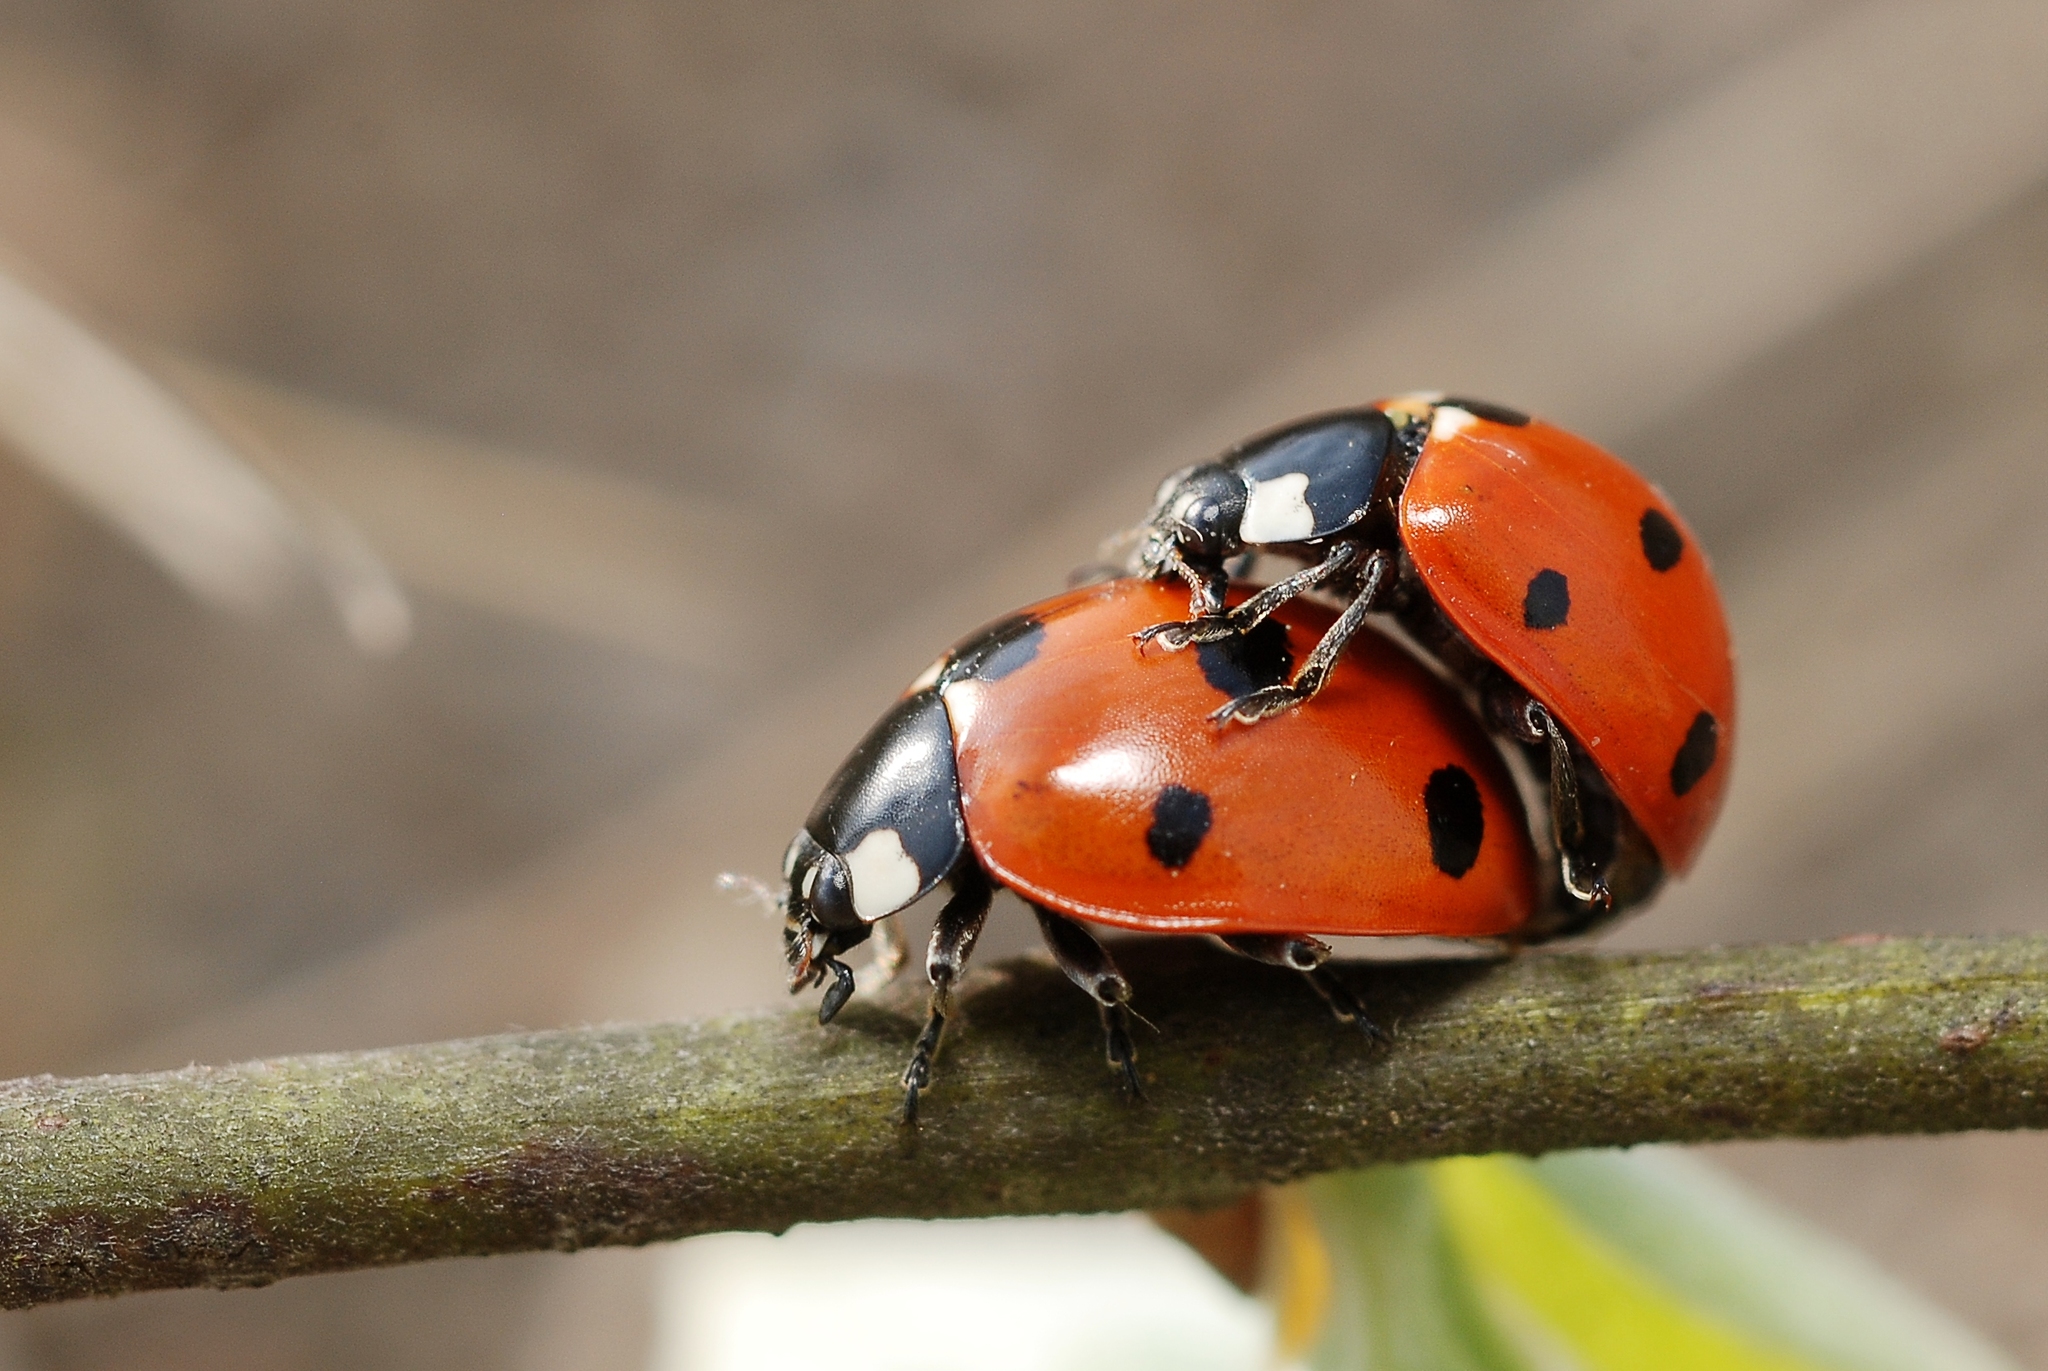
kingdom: Animalia
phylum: Arthropoda
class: Insecta
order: Coleoptera
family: Coccinellidae
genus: Coccinella
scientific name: Coccinella septempunctata
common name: Sevenspotted lady beetle
